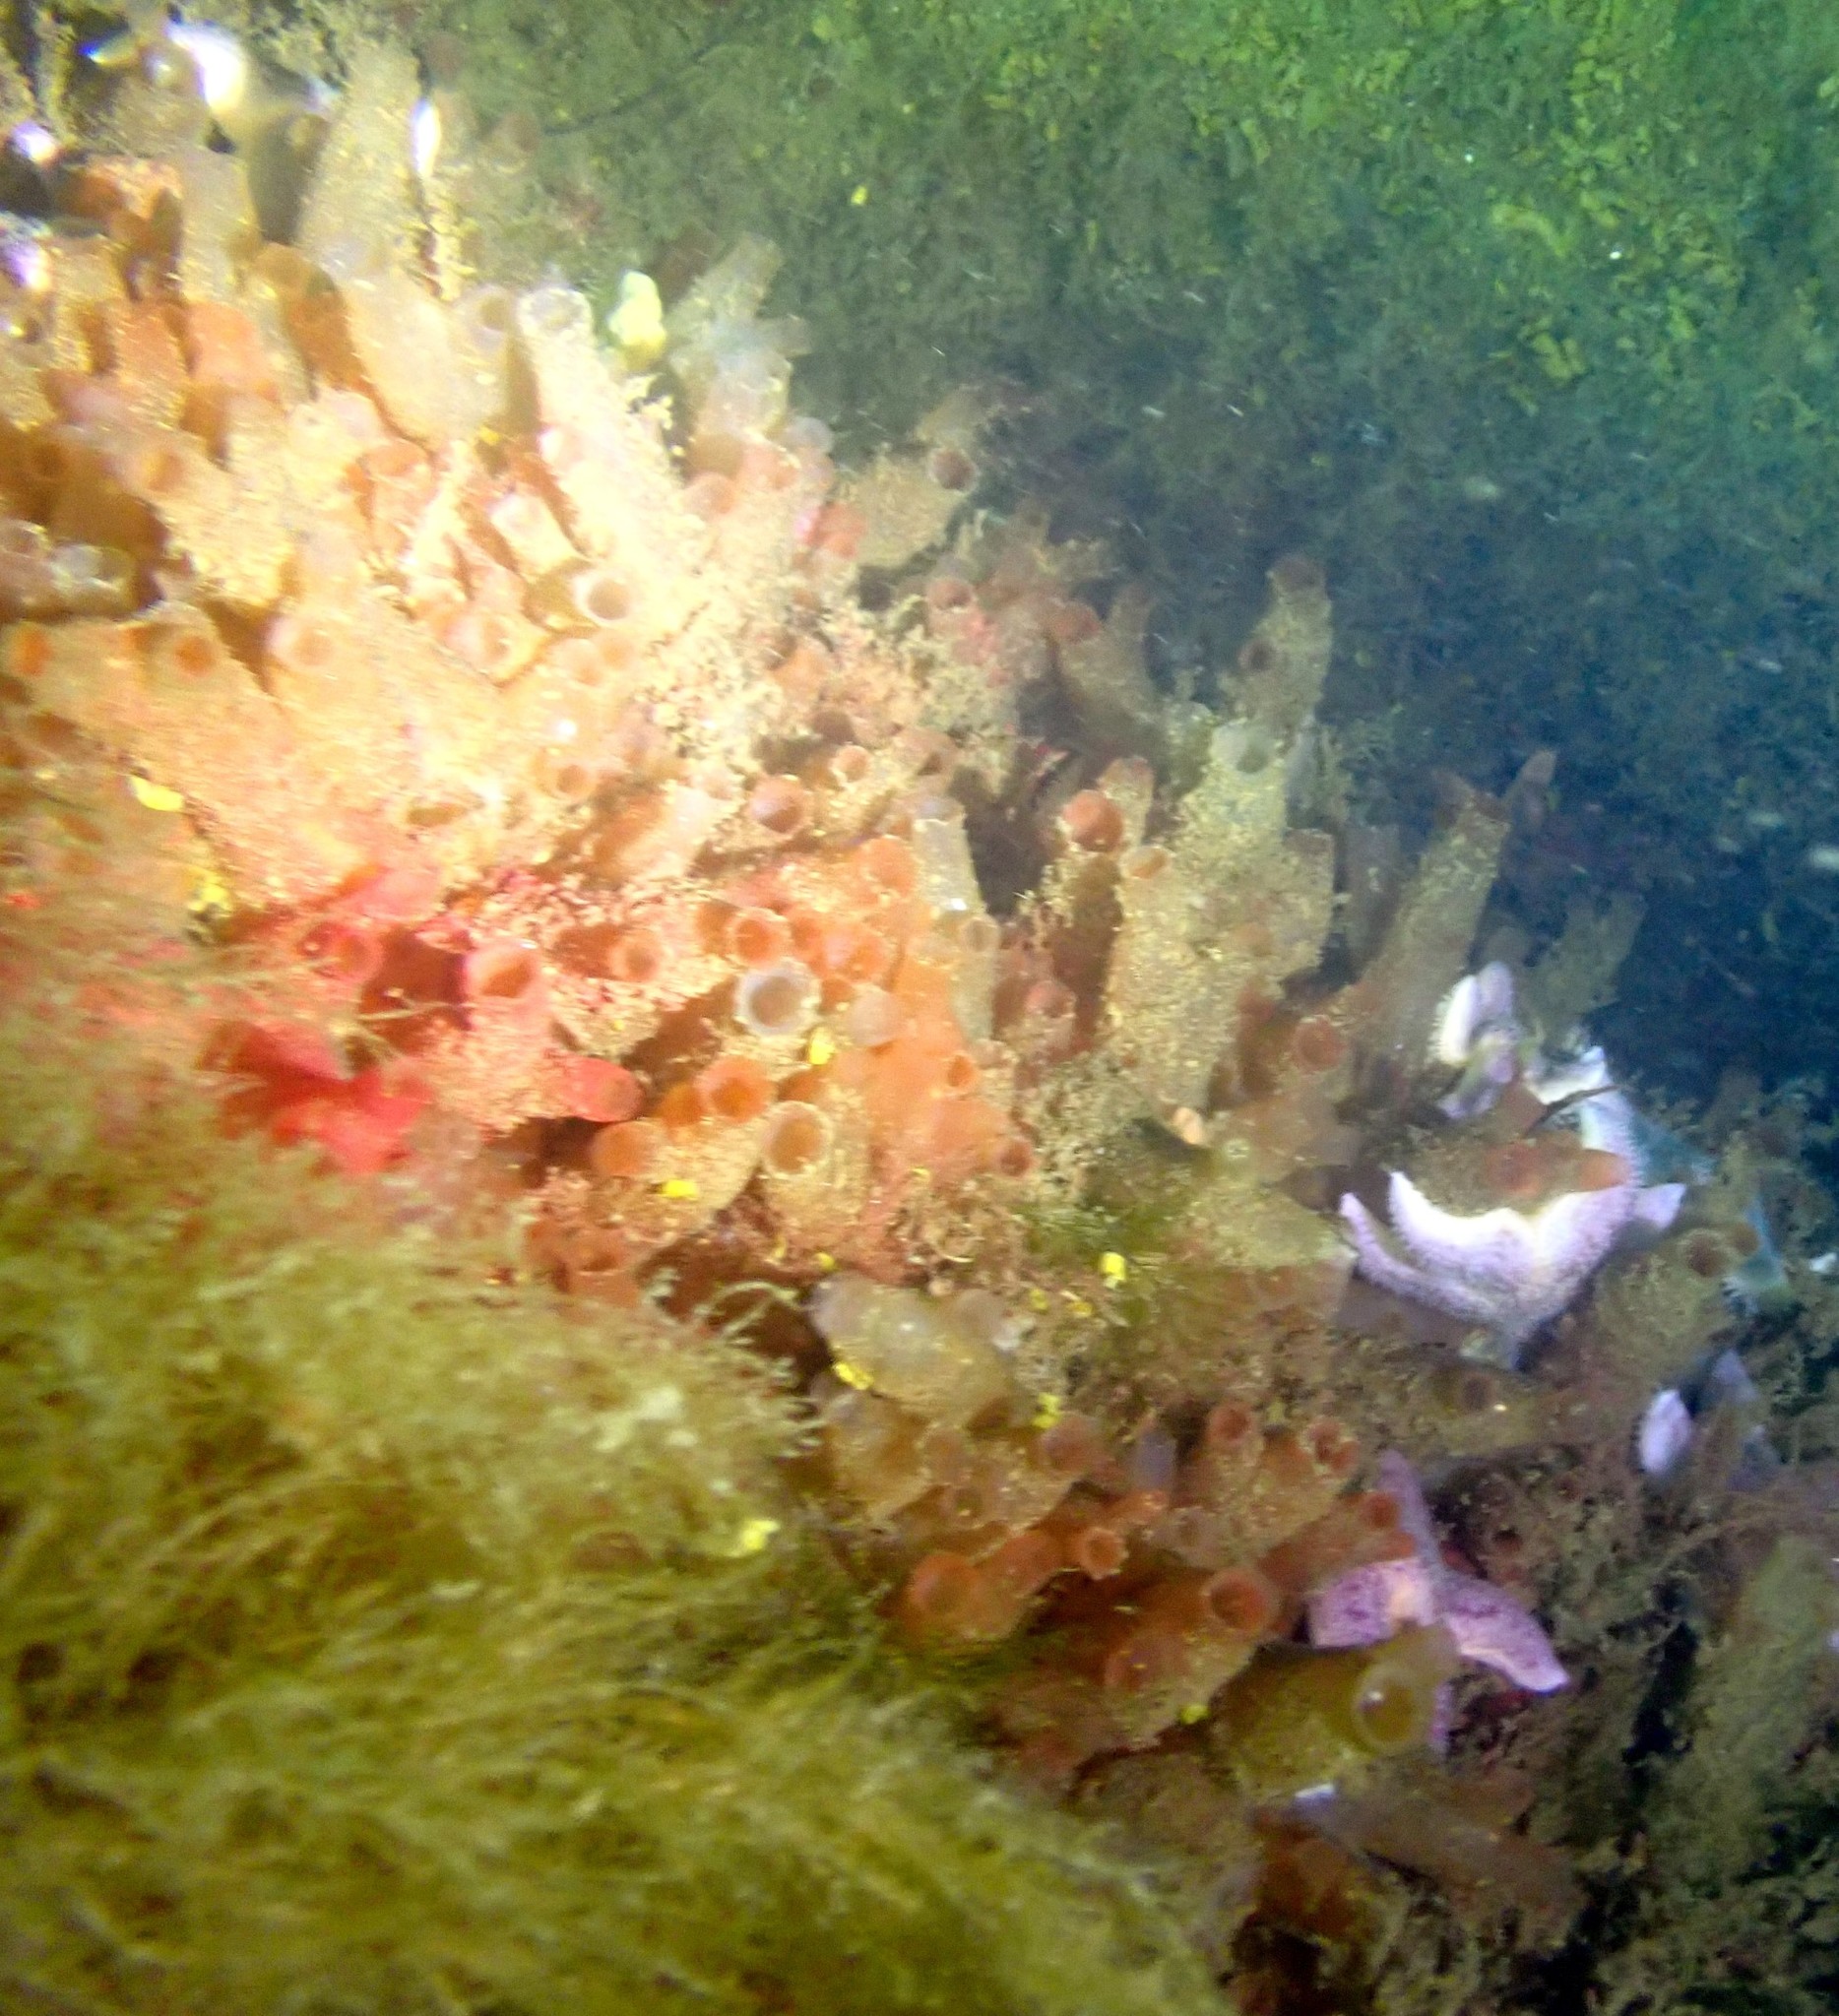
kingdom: Animalia
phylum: Chordata
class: Ascidiacea
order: Phlebobranchia
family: Cionidae
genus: Ciona
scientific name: Ciona intestinalis
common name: Vase tunicate
